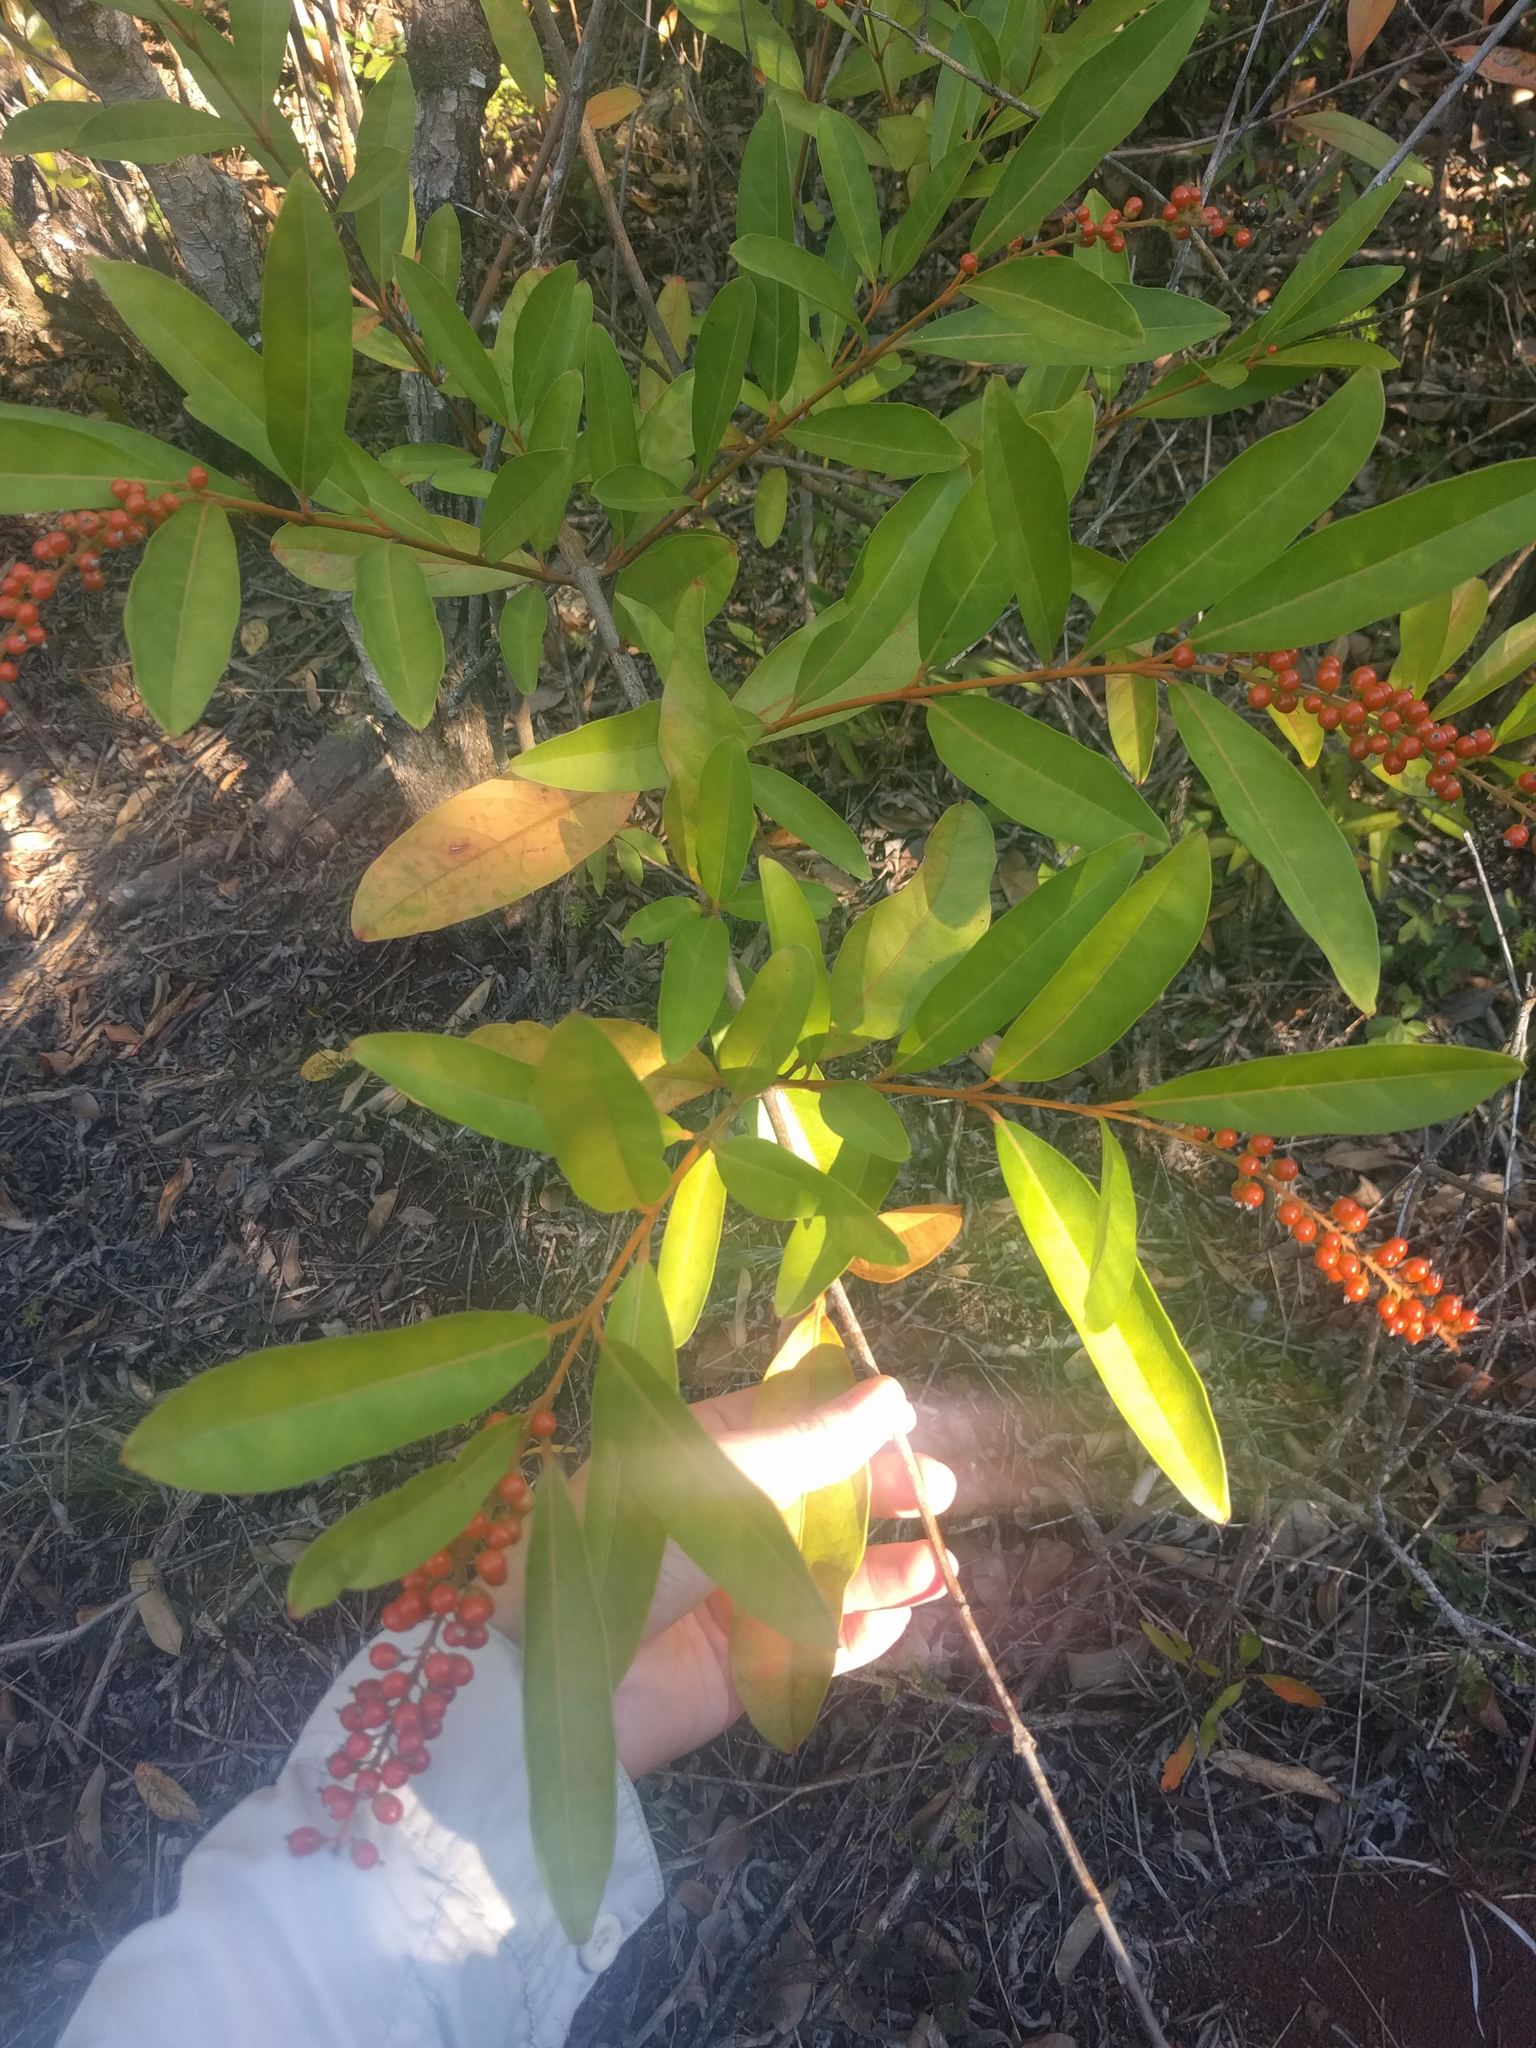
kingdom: Plantae
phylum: Tracheophyta
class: Magnoliopsida
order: Lamiales
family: Verbenaceae
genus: Citharexylum
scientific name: Citharexylum caudatum
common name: Fiddlewood
